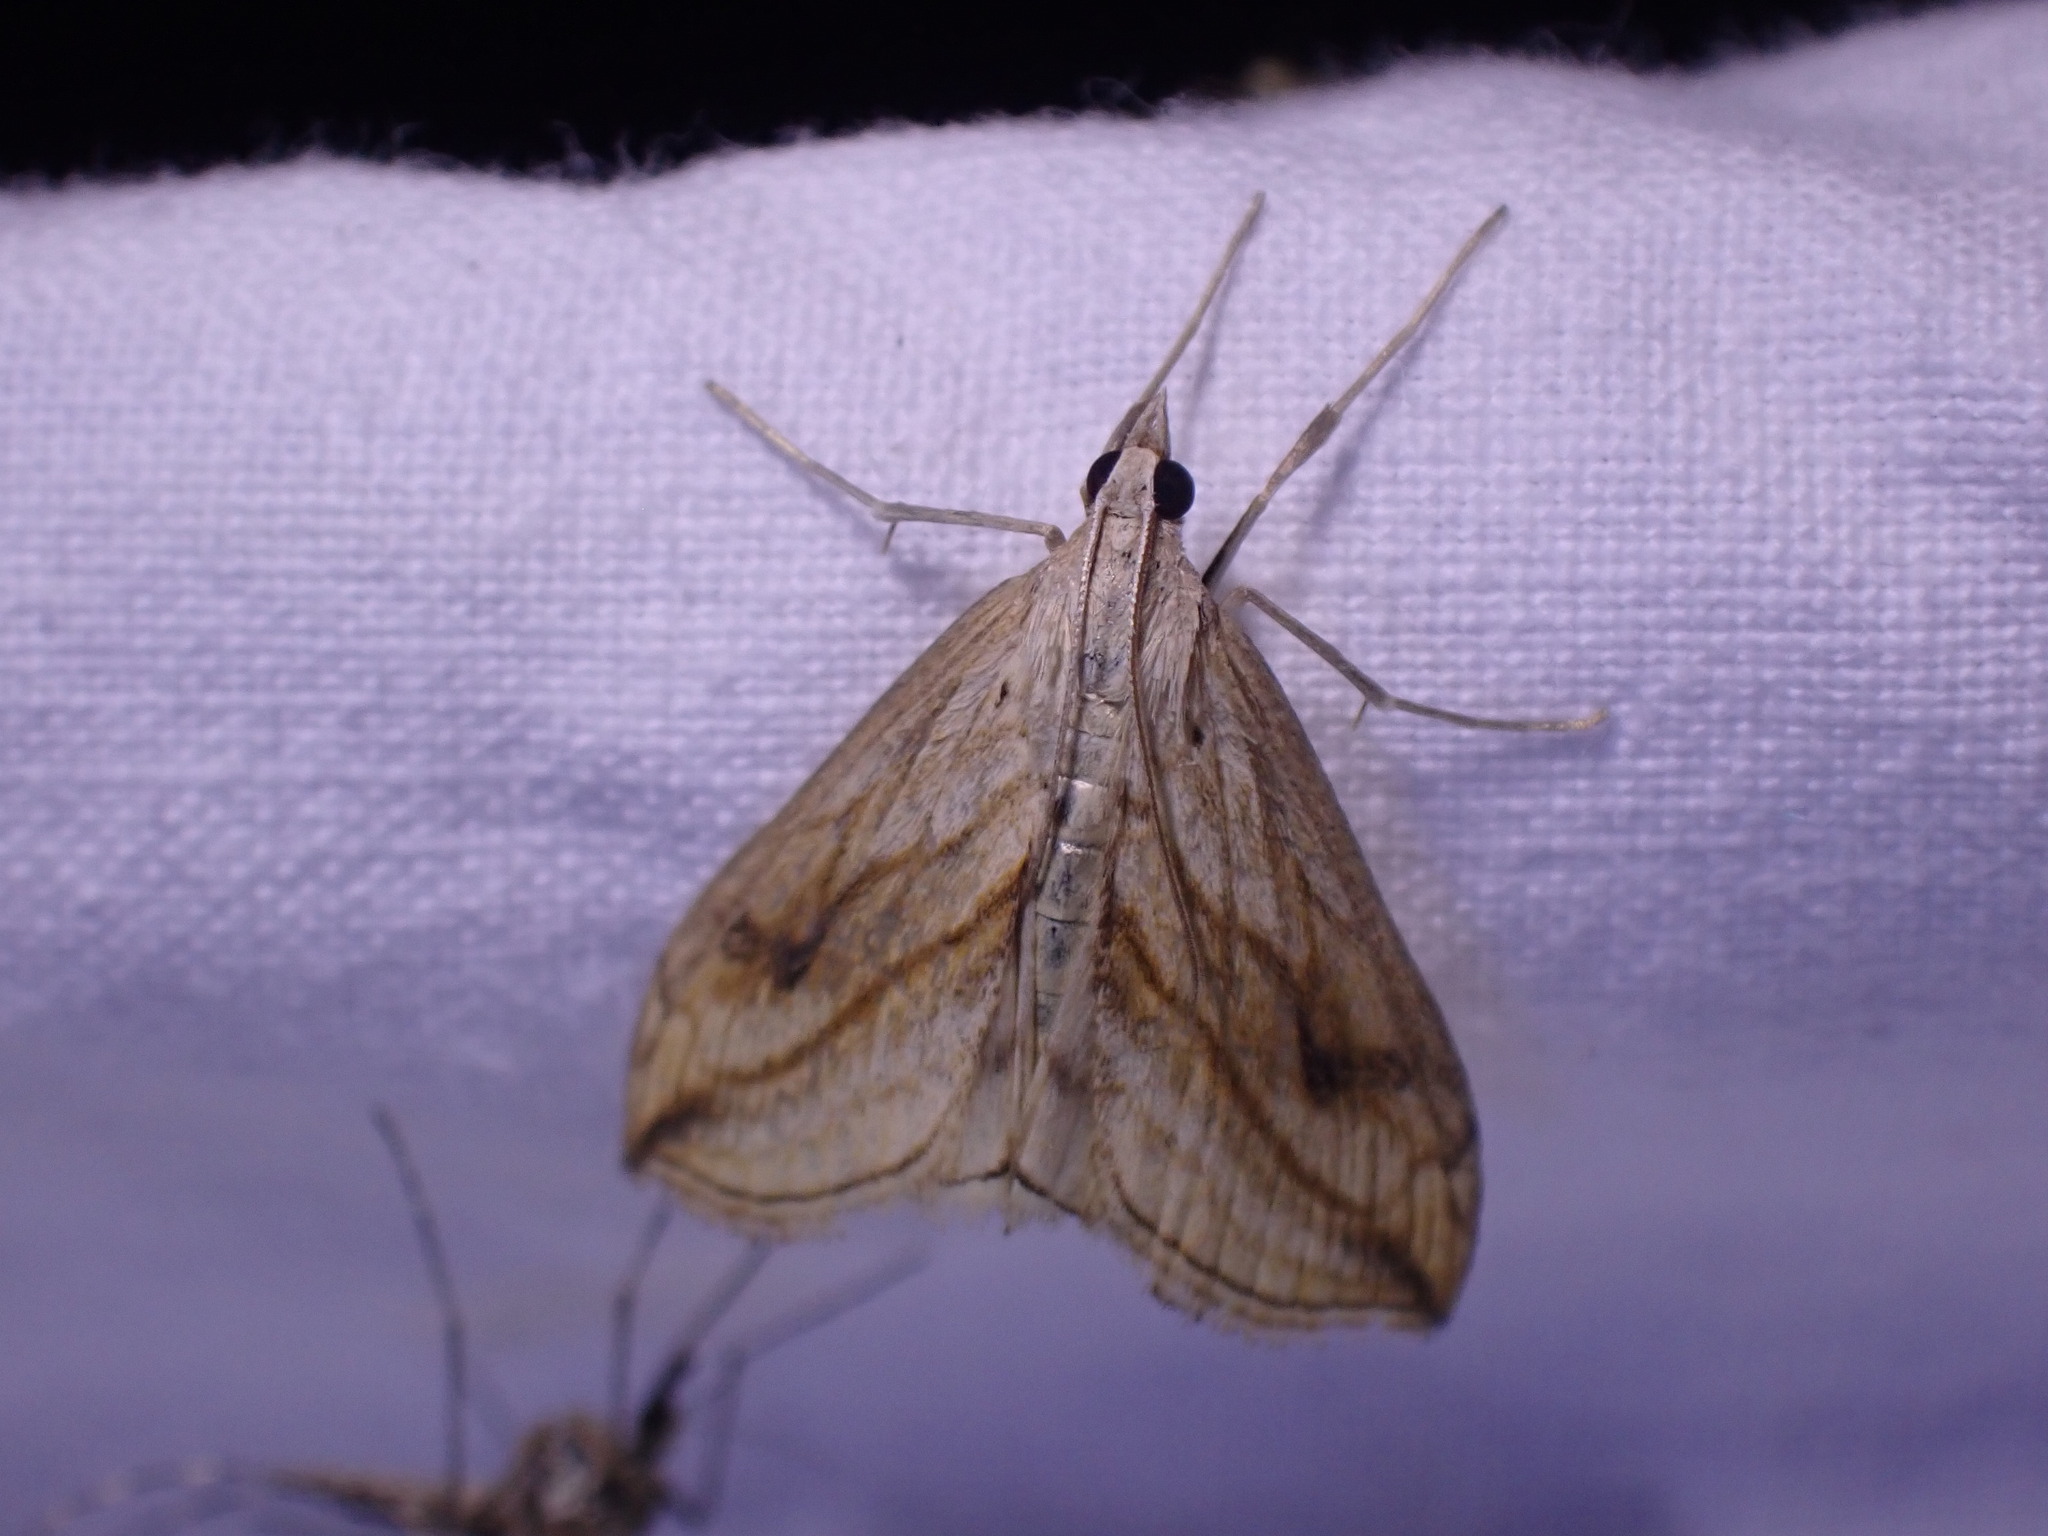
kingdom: Animalia
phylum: Arthropoda
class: Insecta
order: Lepidoptera
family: Crambidae
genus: Evergestis
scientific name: Evergestis forficalis
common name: Garden pebble
